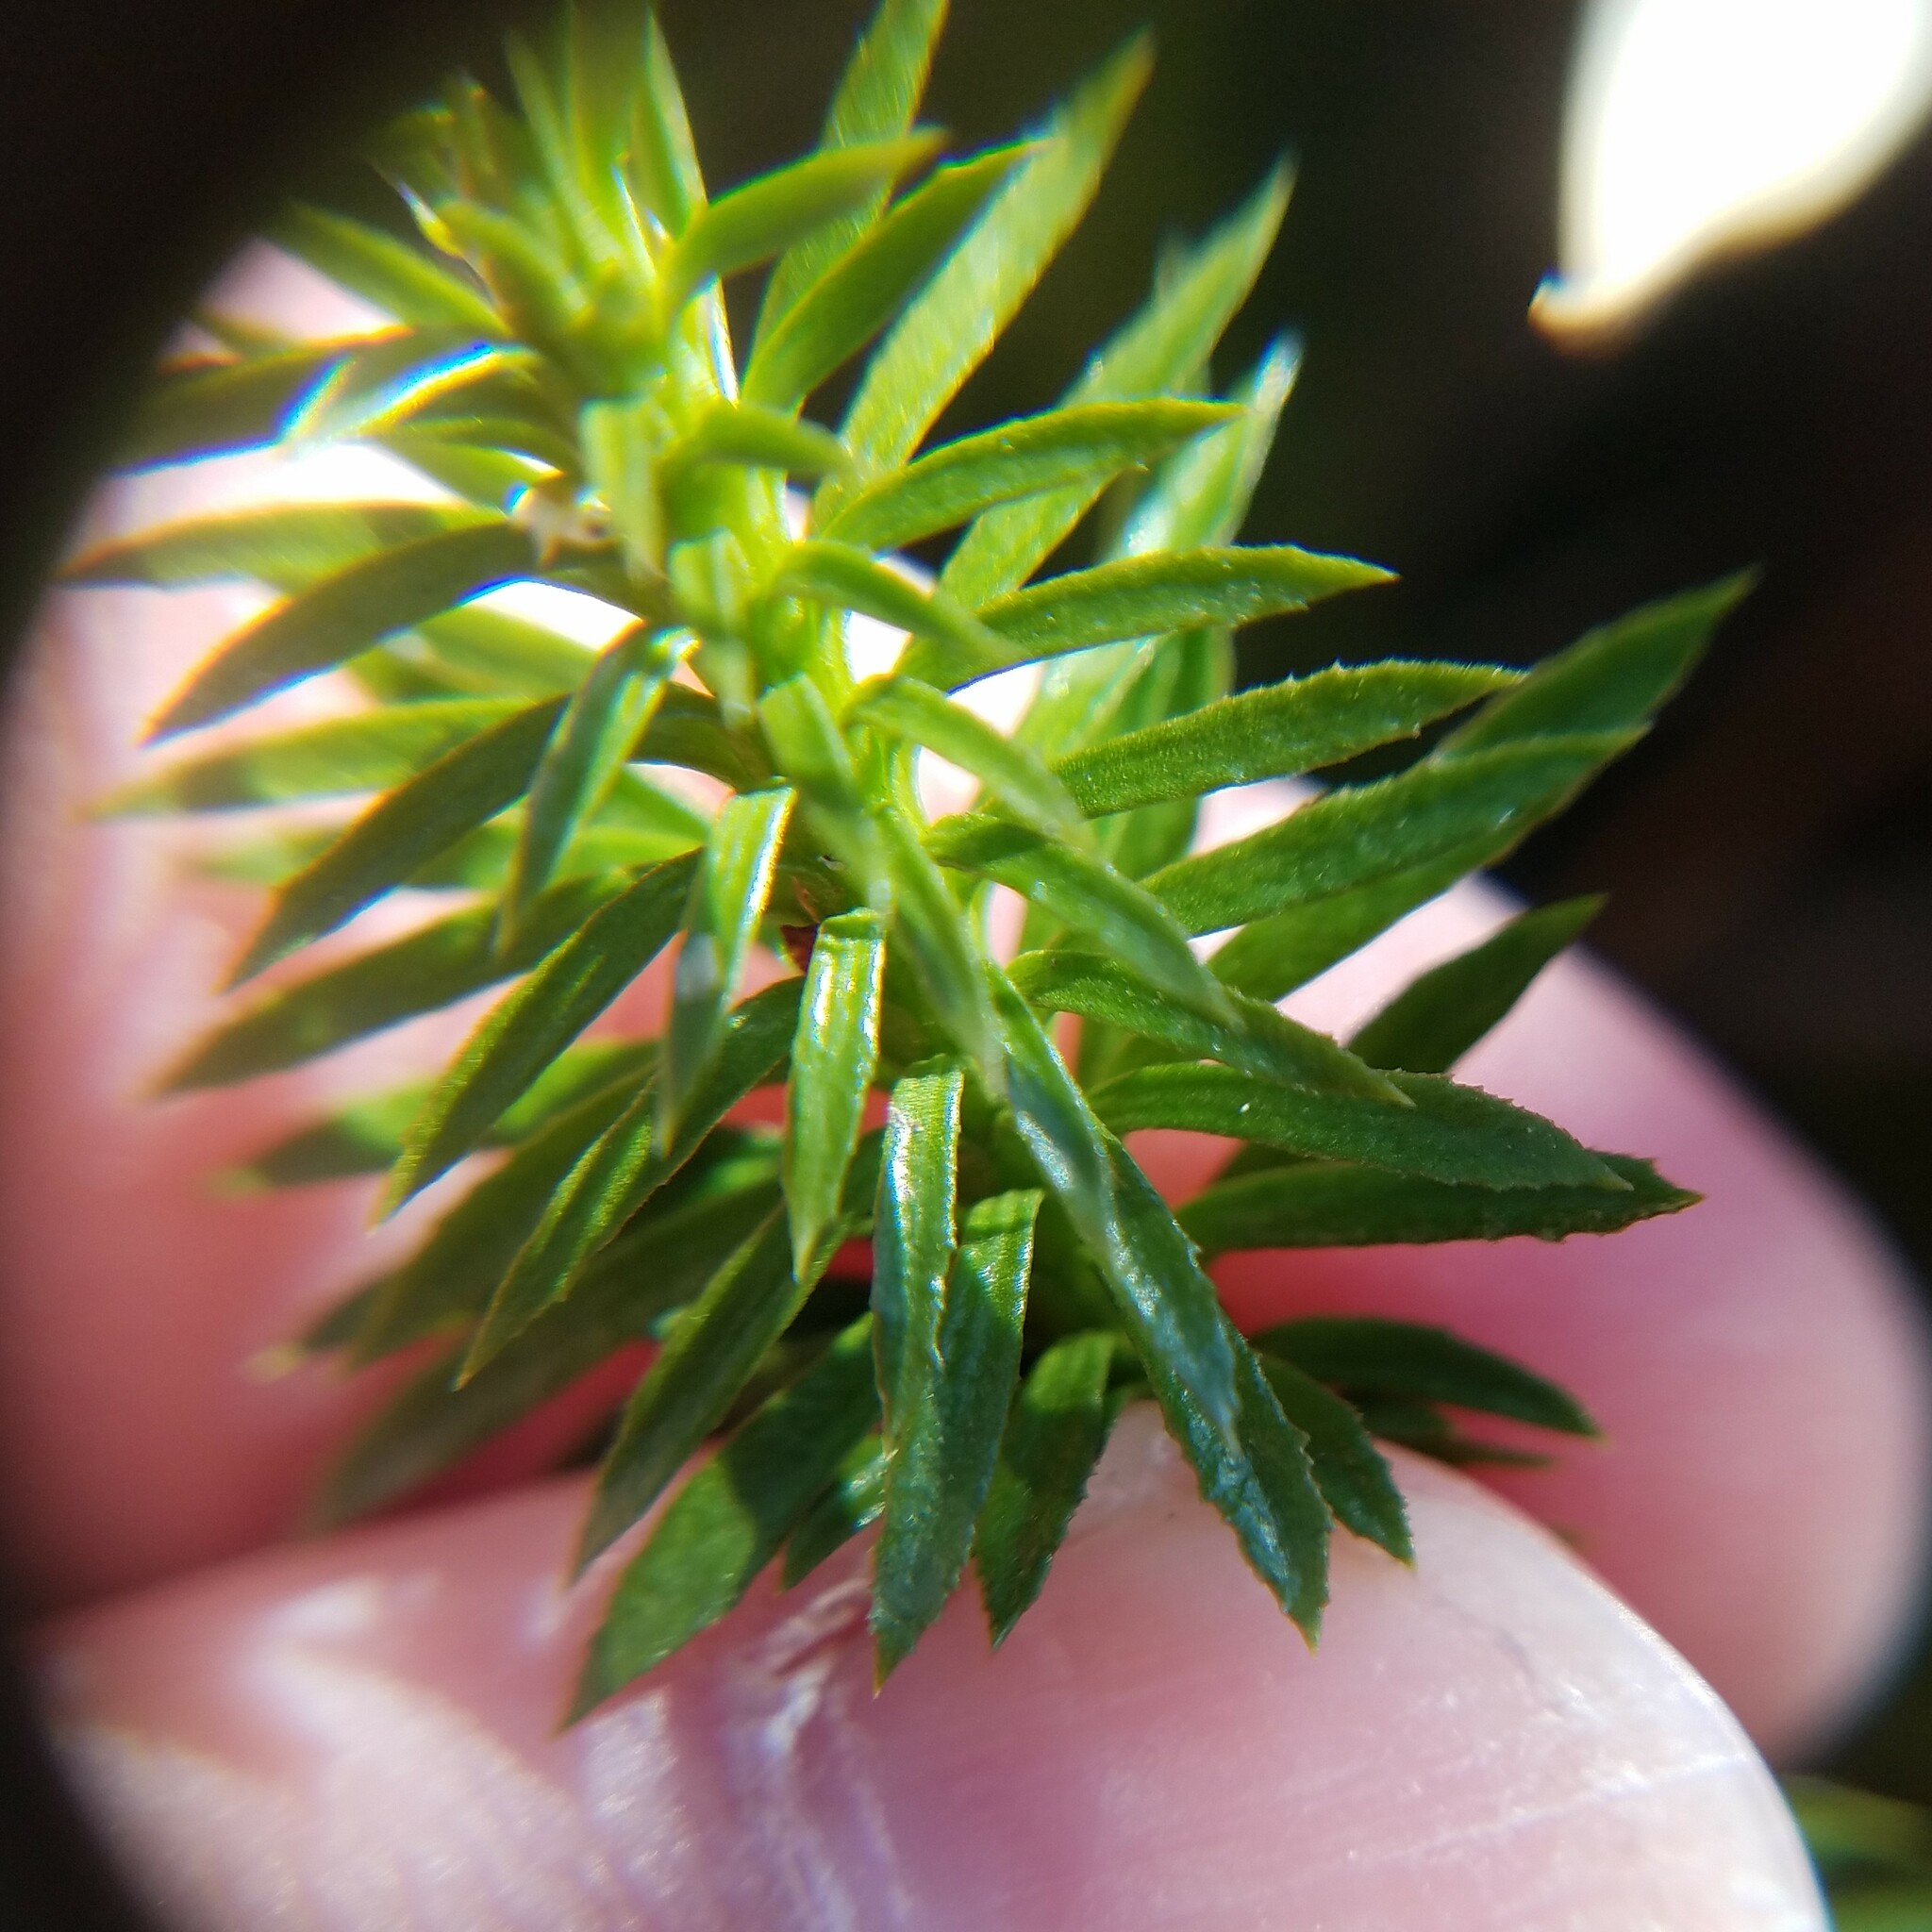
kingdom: Plantae
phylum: Tracheophyta
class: Lycopodiopsida
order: Lycopodiales
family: Lycopodiaceae
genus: Huperzia
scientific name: Huperzia lucidula
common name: Shining clubmoss
